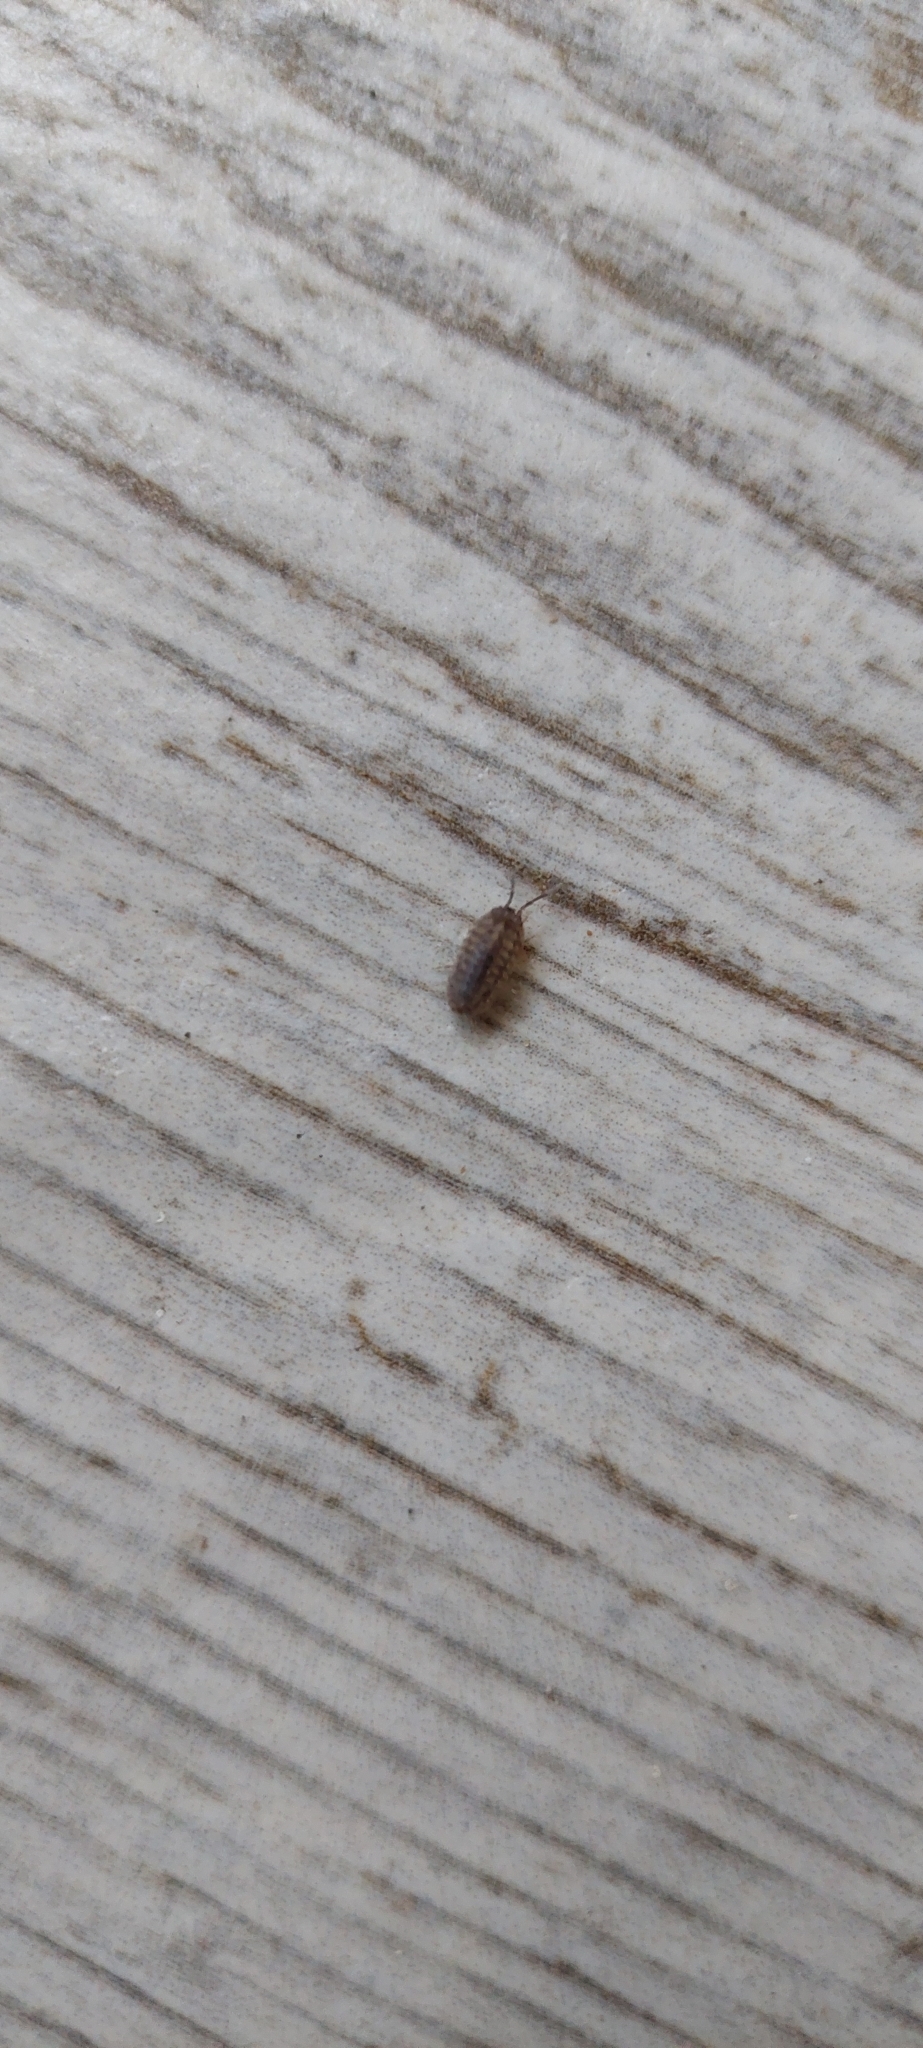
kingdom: Animalia
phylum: Arthropoda
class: Malacostraca
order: Isopoda
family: Armadillidiidae
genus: Armadillidium
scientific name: Armadillidium nasatum
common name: Isopod
